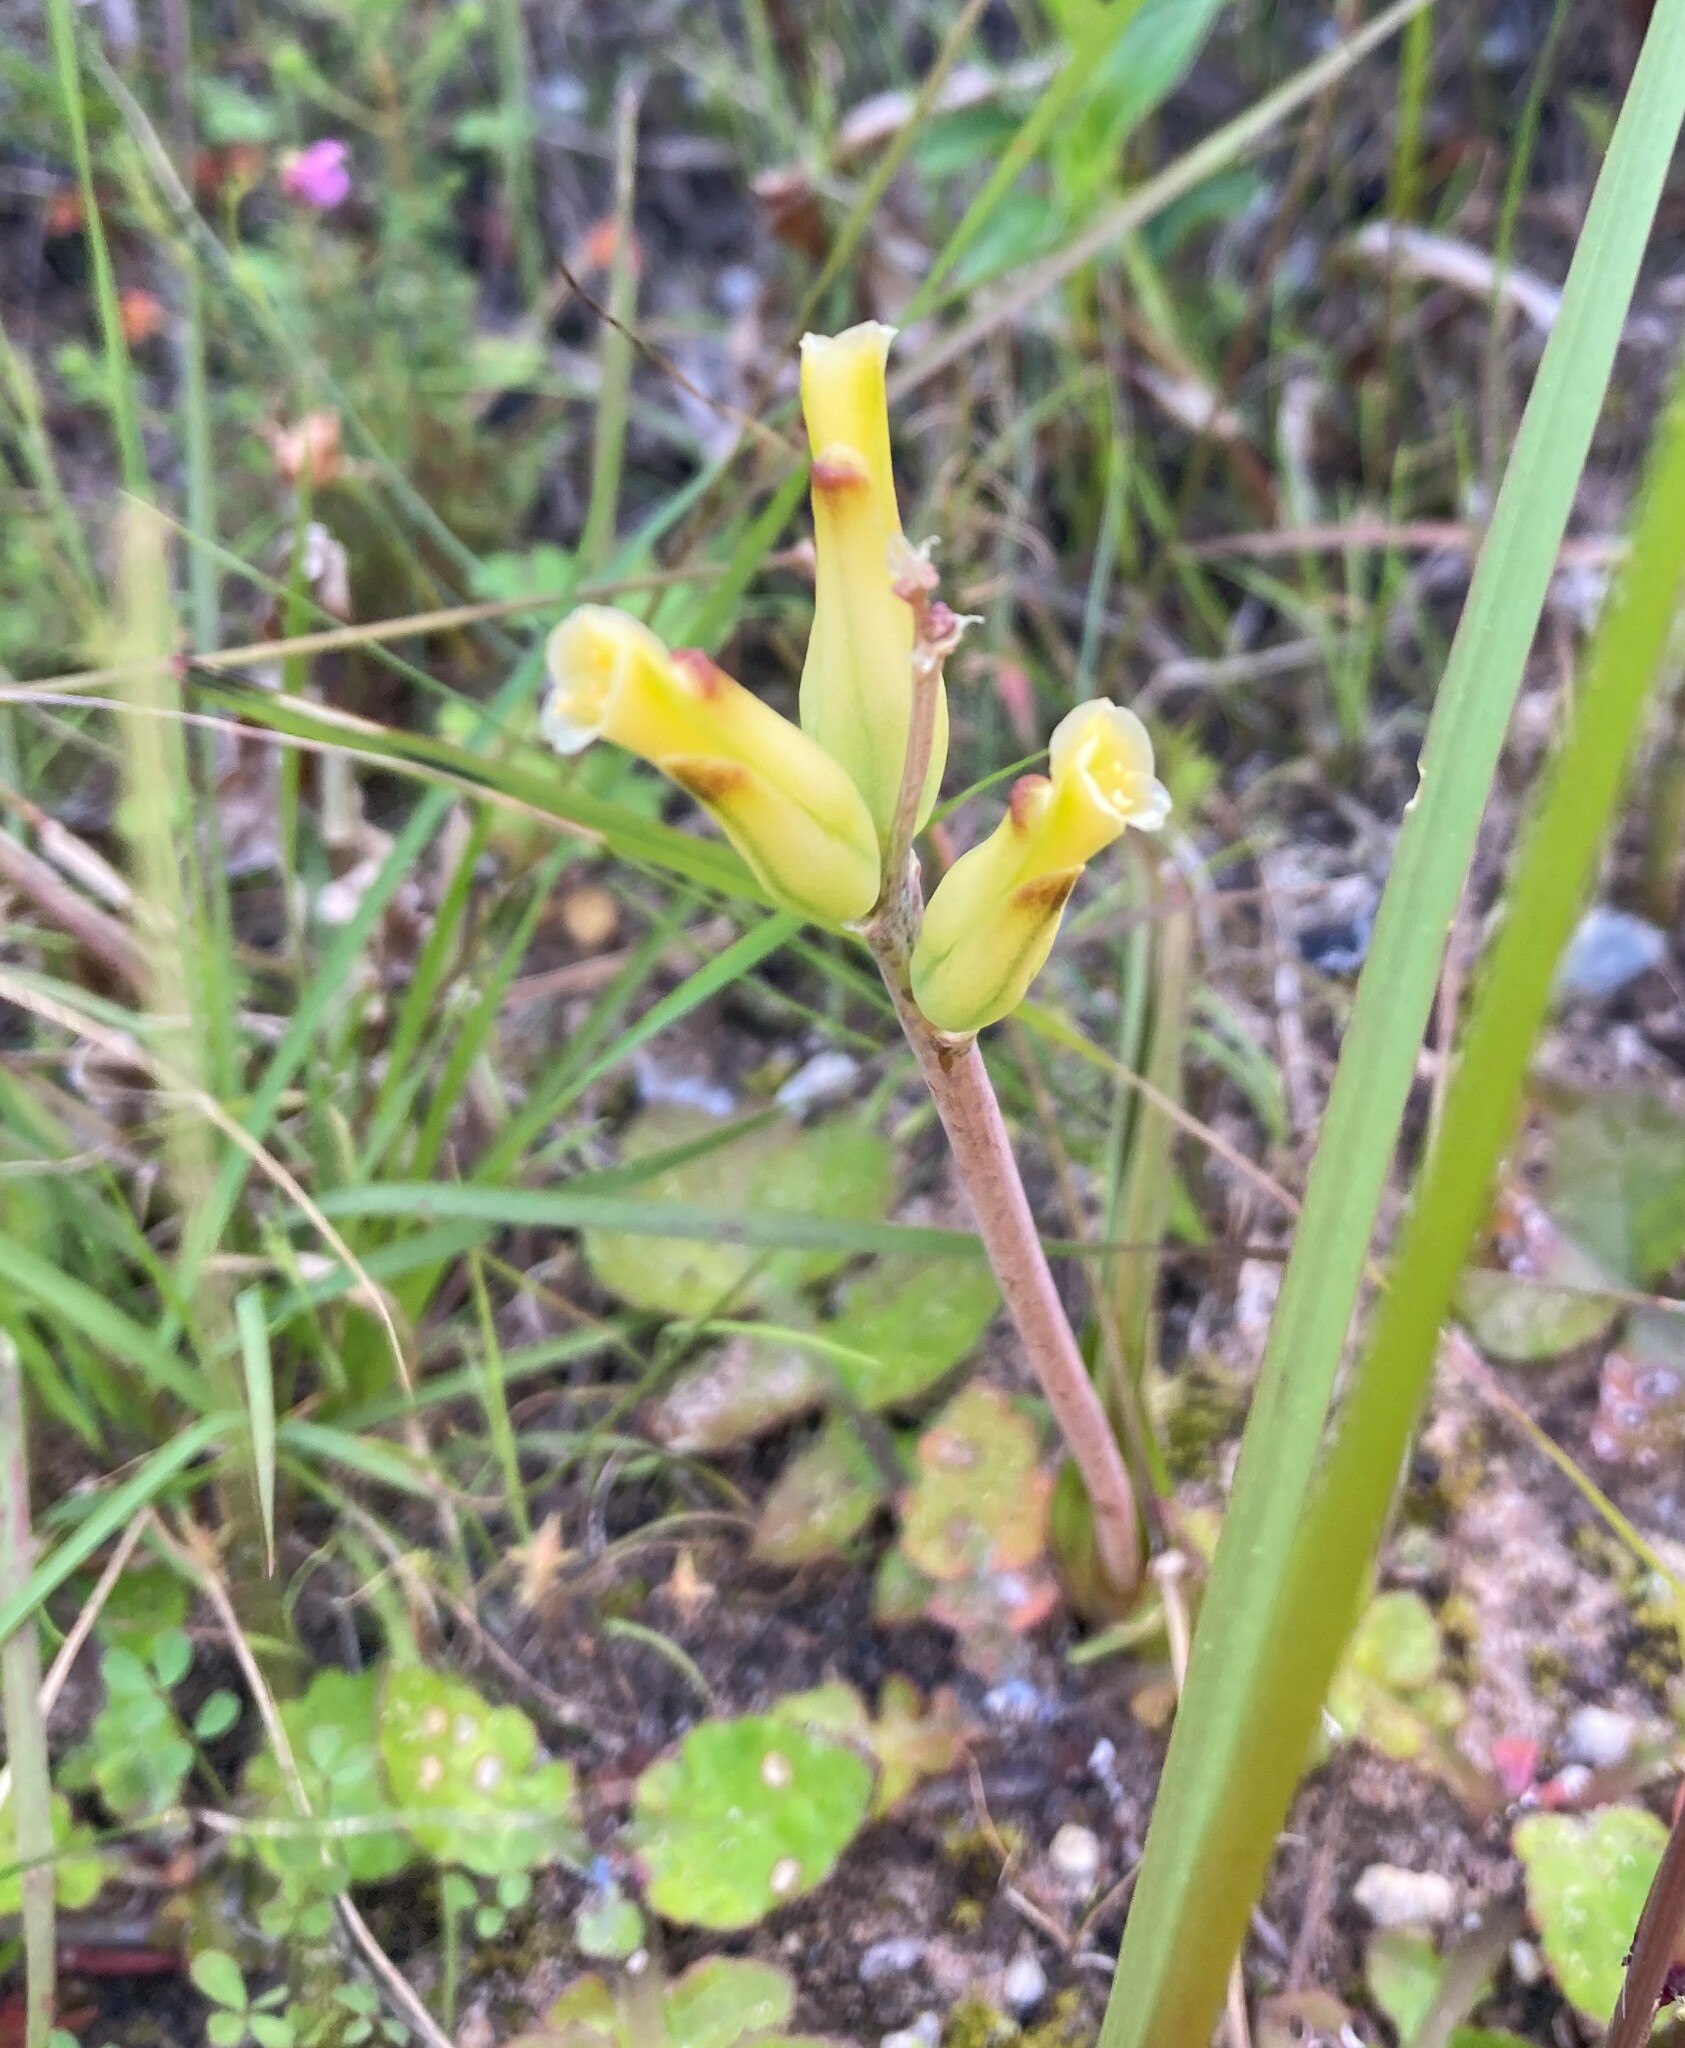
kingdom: Plantae
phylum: Tracheophyta
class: Liliopsida
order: Asparagales
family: Asparagaceae
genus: Lachenalia
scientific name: Lachenalia algoensis
